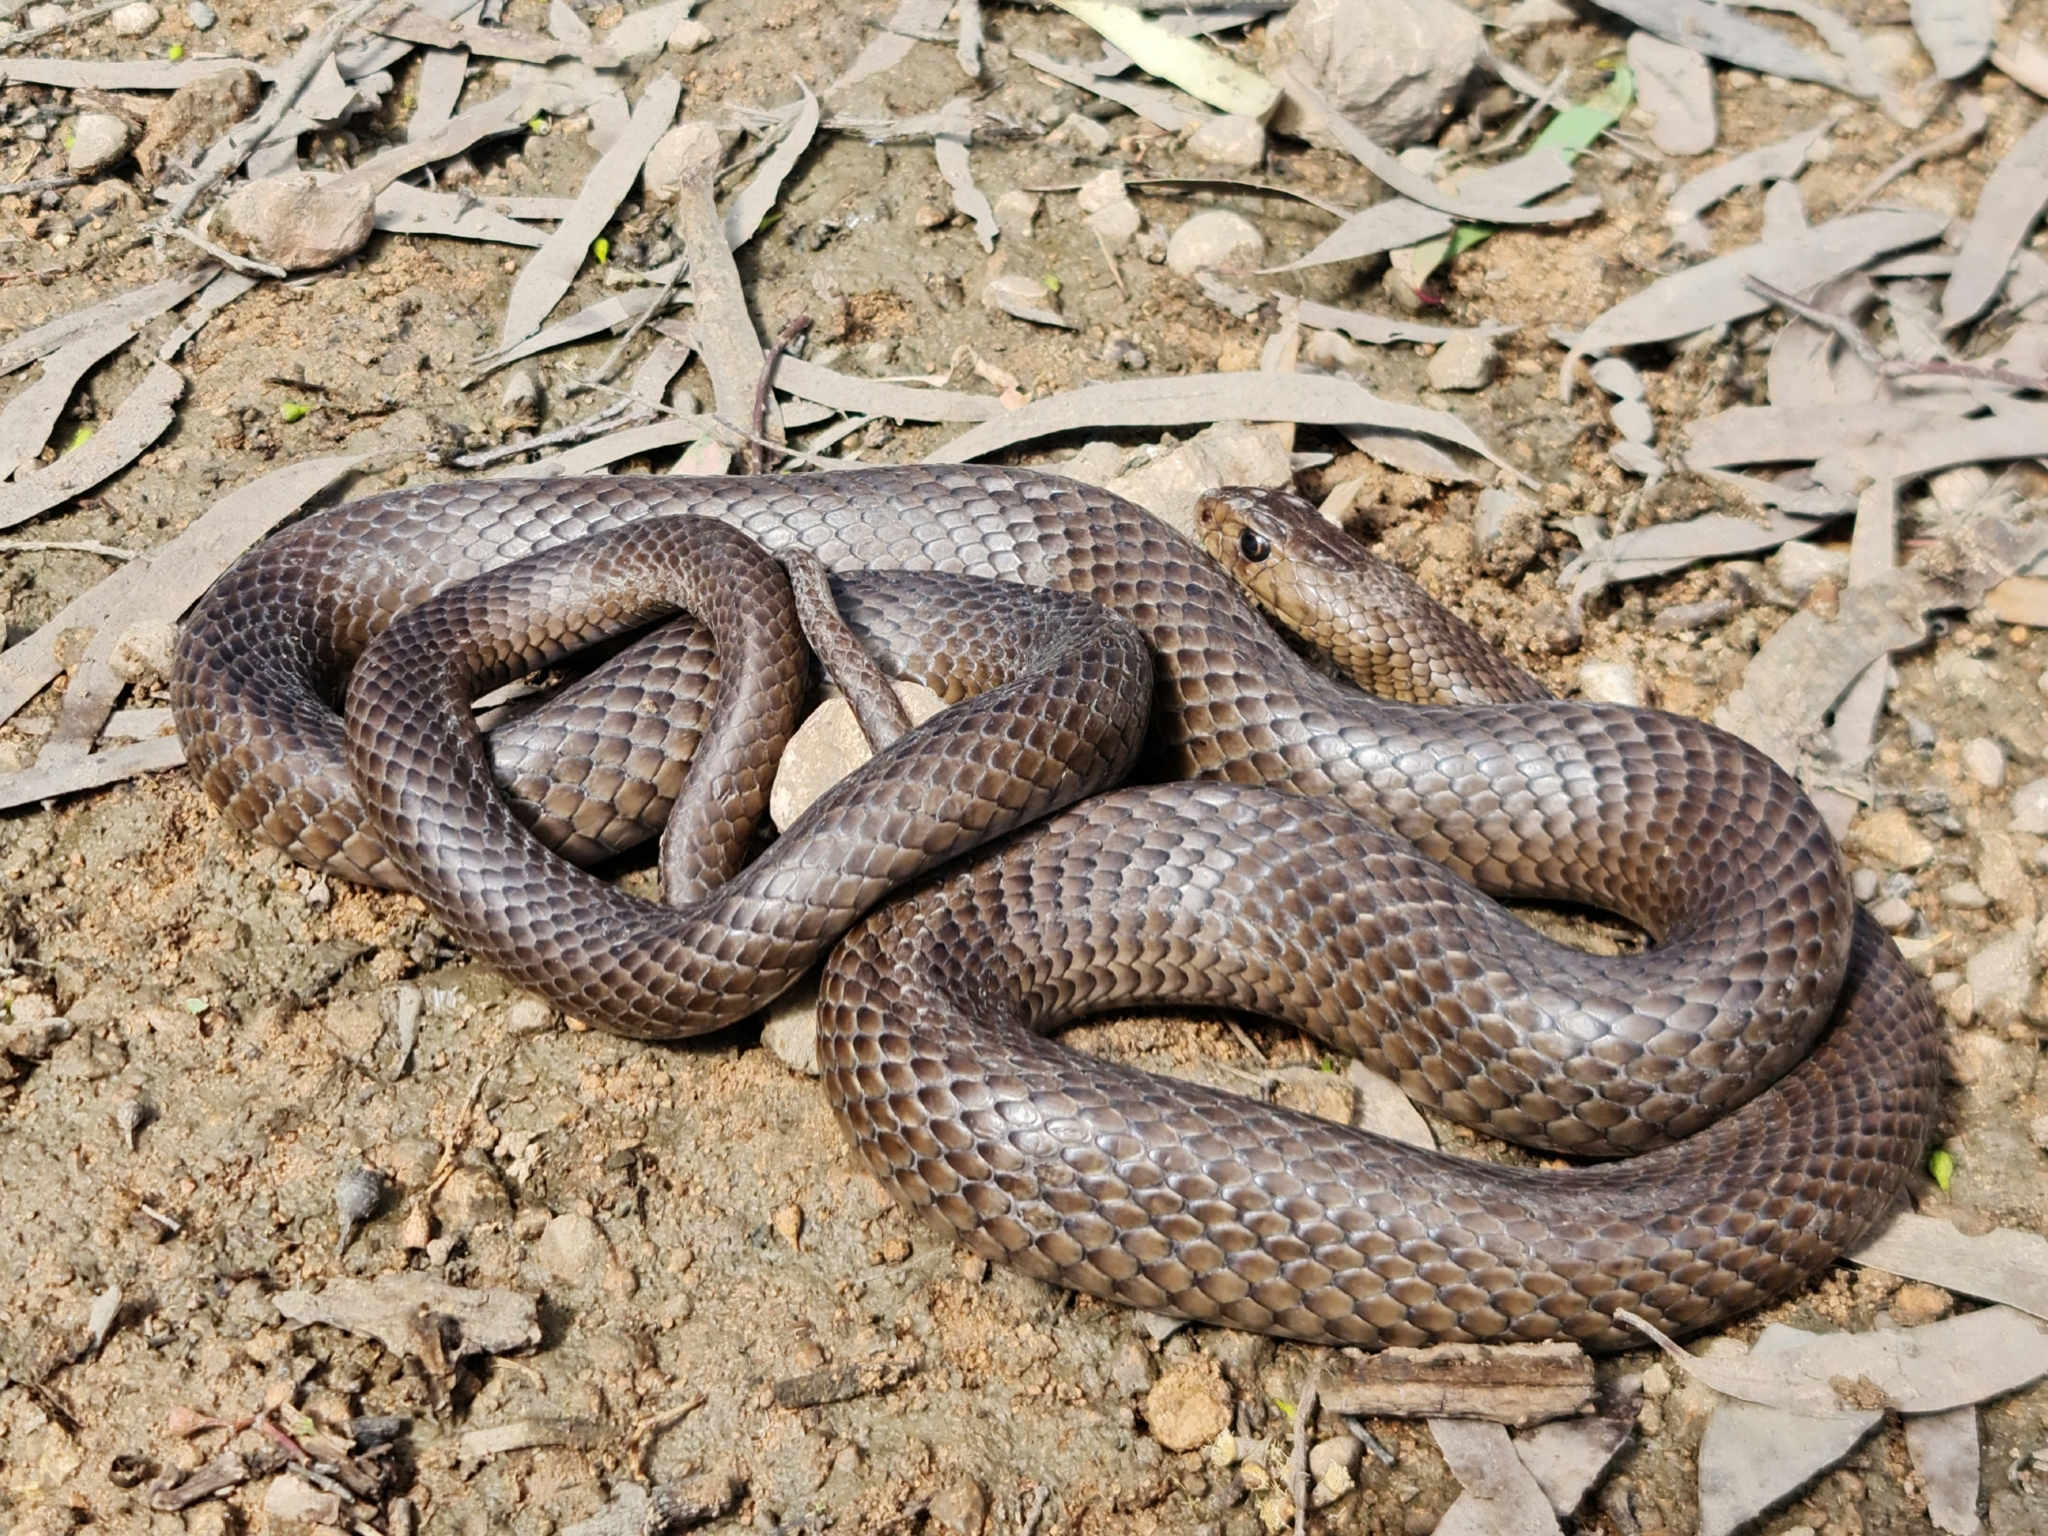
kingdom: Animalia
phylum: Chordata
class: Squamata
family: Elapidae
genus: Pseudonaja
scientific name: Pseudonaja textilis
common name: Eastern brown snake
